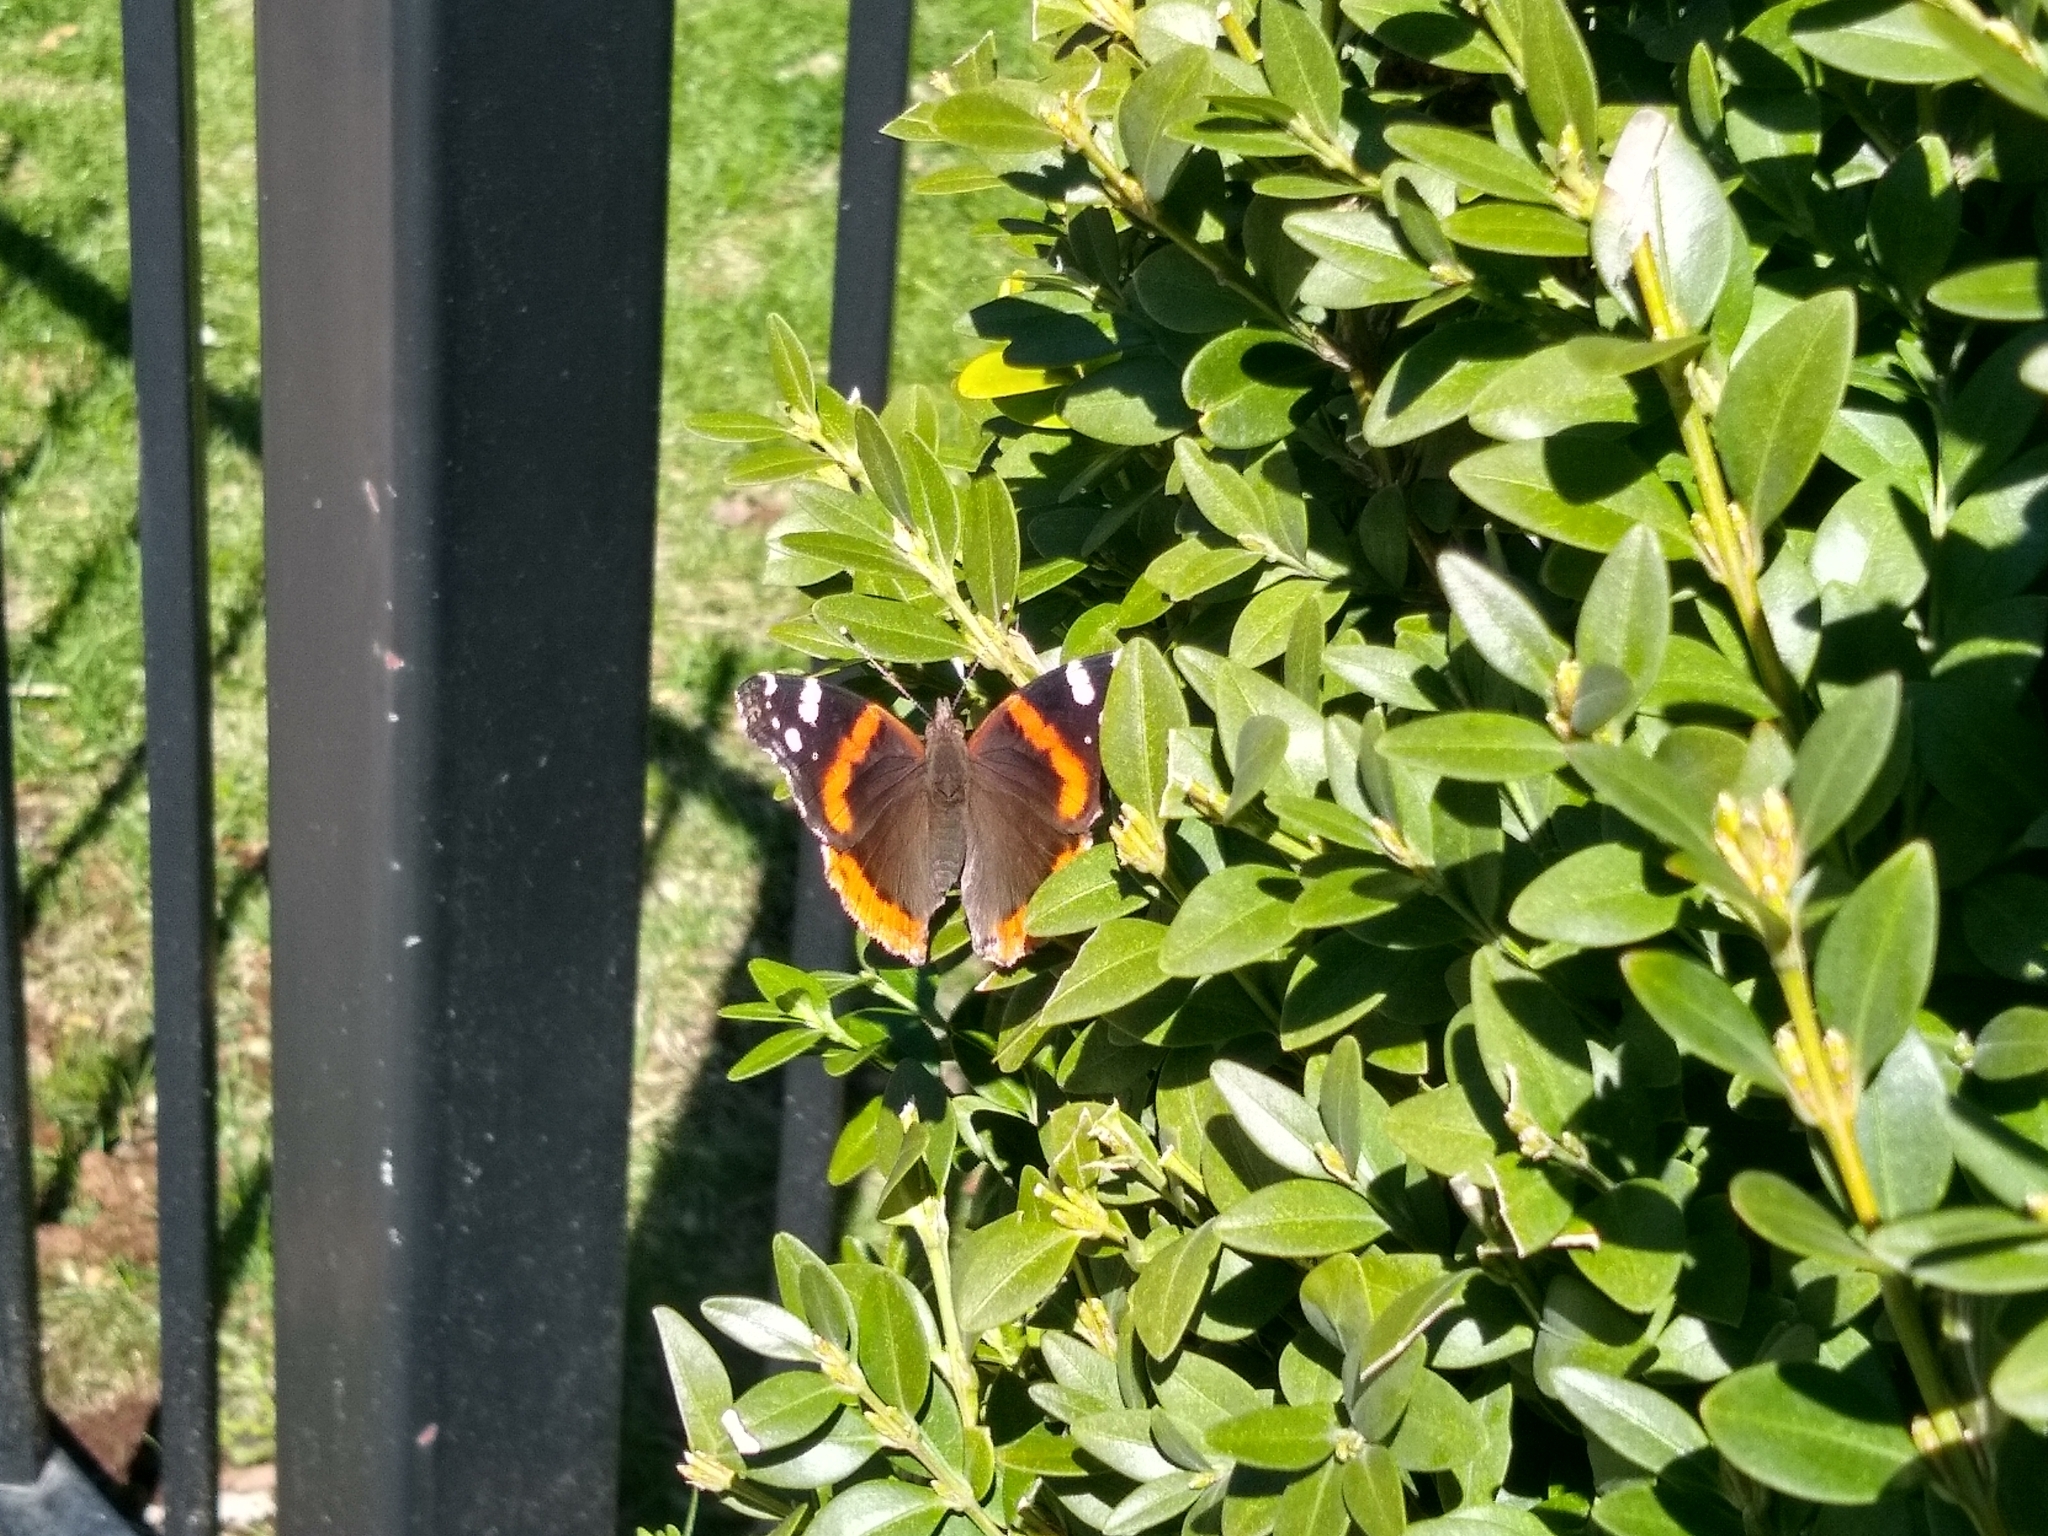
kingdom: Animalia
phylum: Arthropoda
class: Insecta
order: Lepidoptera
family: Nymphalidae
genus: Vanessa
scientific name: Vanessa atalanta
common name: Red admiral
